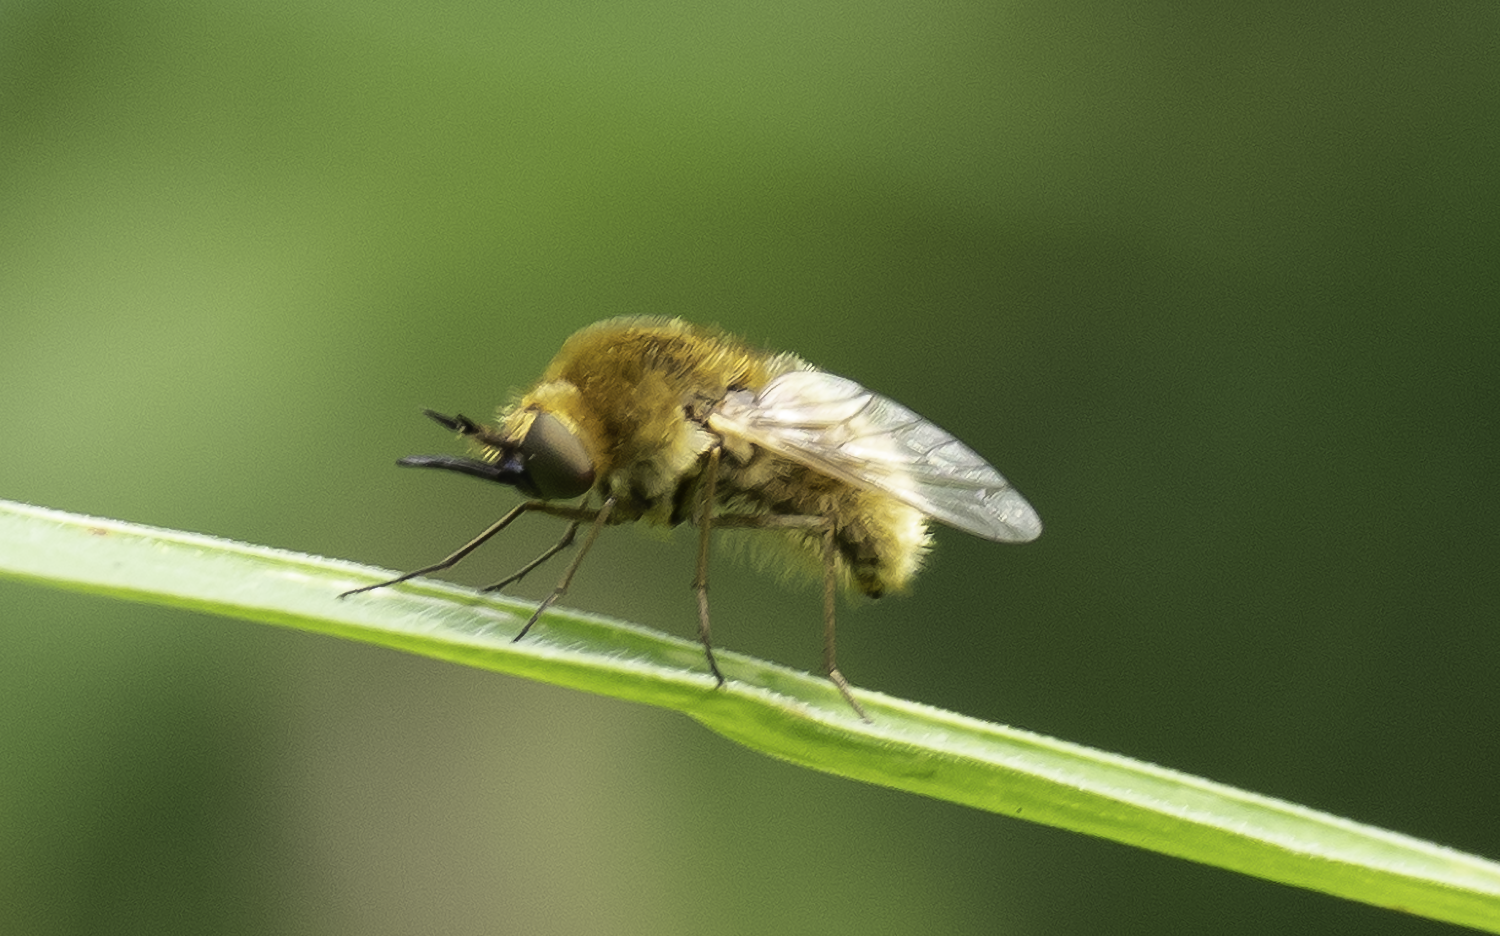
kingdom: Animalia
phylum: Arthropoda
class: Insecta
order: Diptera
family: Bombyliidae
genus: Sparnopolius
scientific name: Sparnopolius confusus
